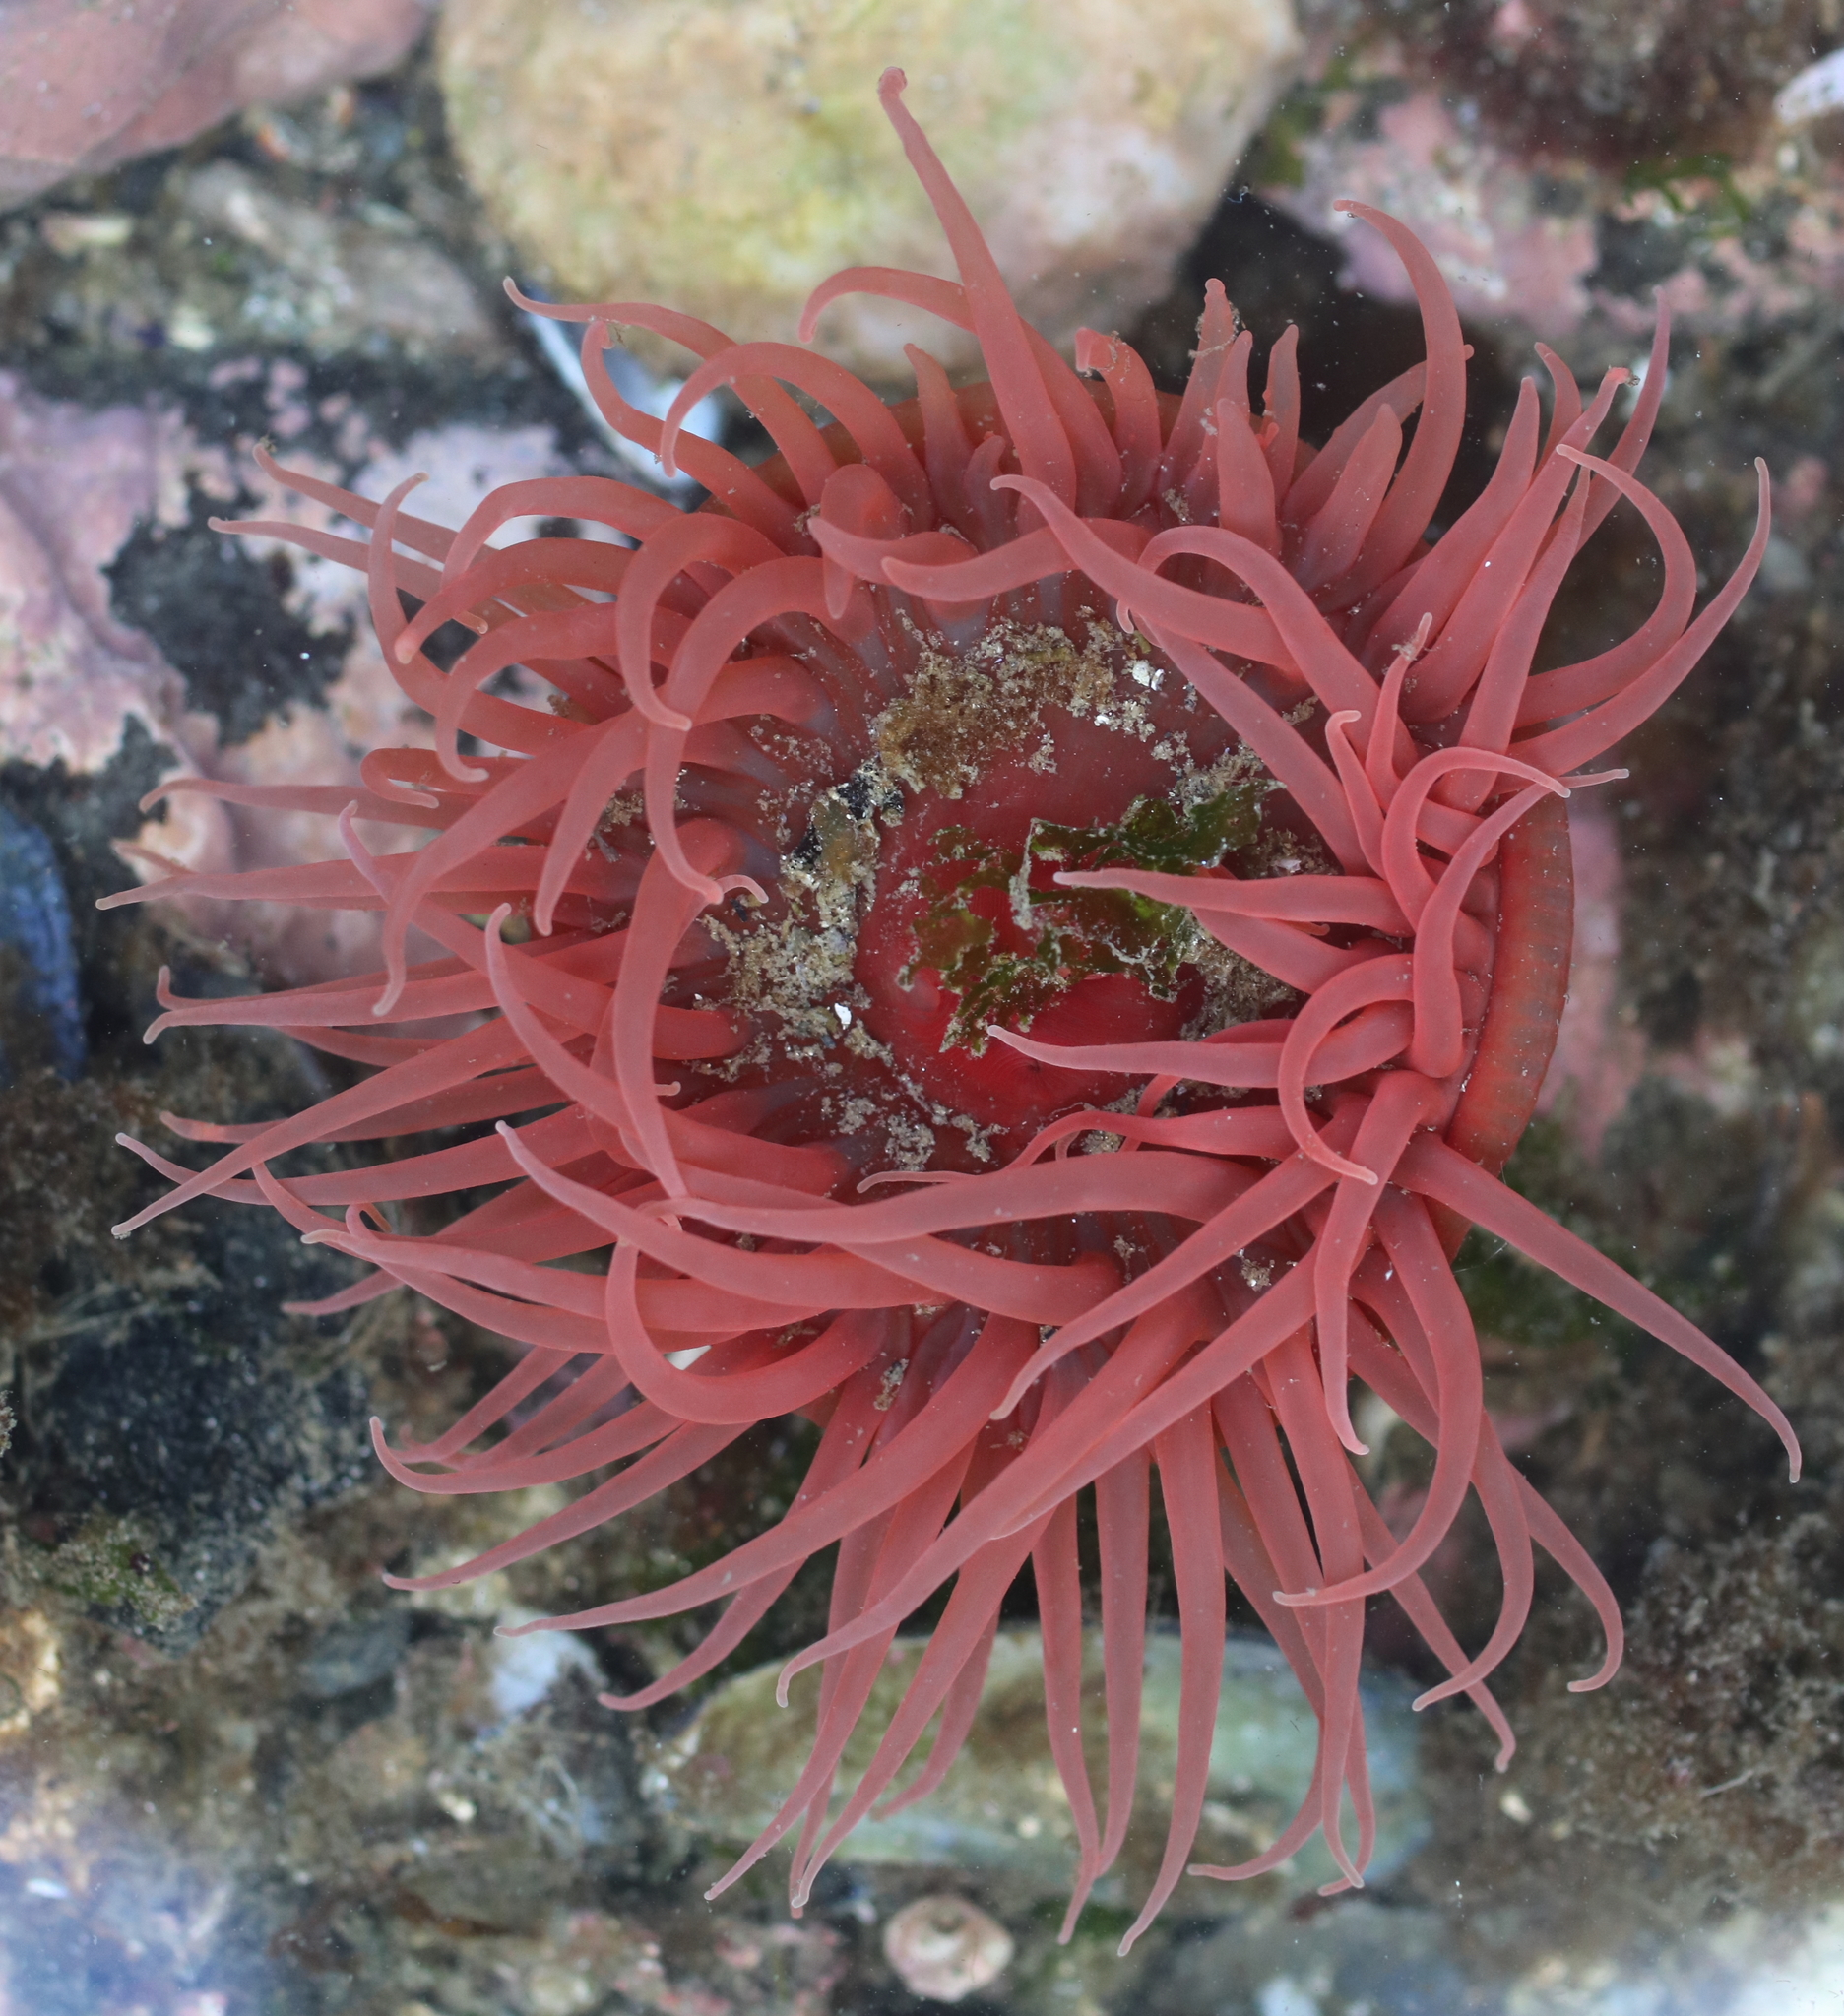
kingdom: Animalia
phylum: Cnidaria
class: Anthozoa
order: Actiniaria
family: Actiniidae
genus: Aulactinia
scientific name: Aulactinia vancouverensis
